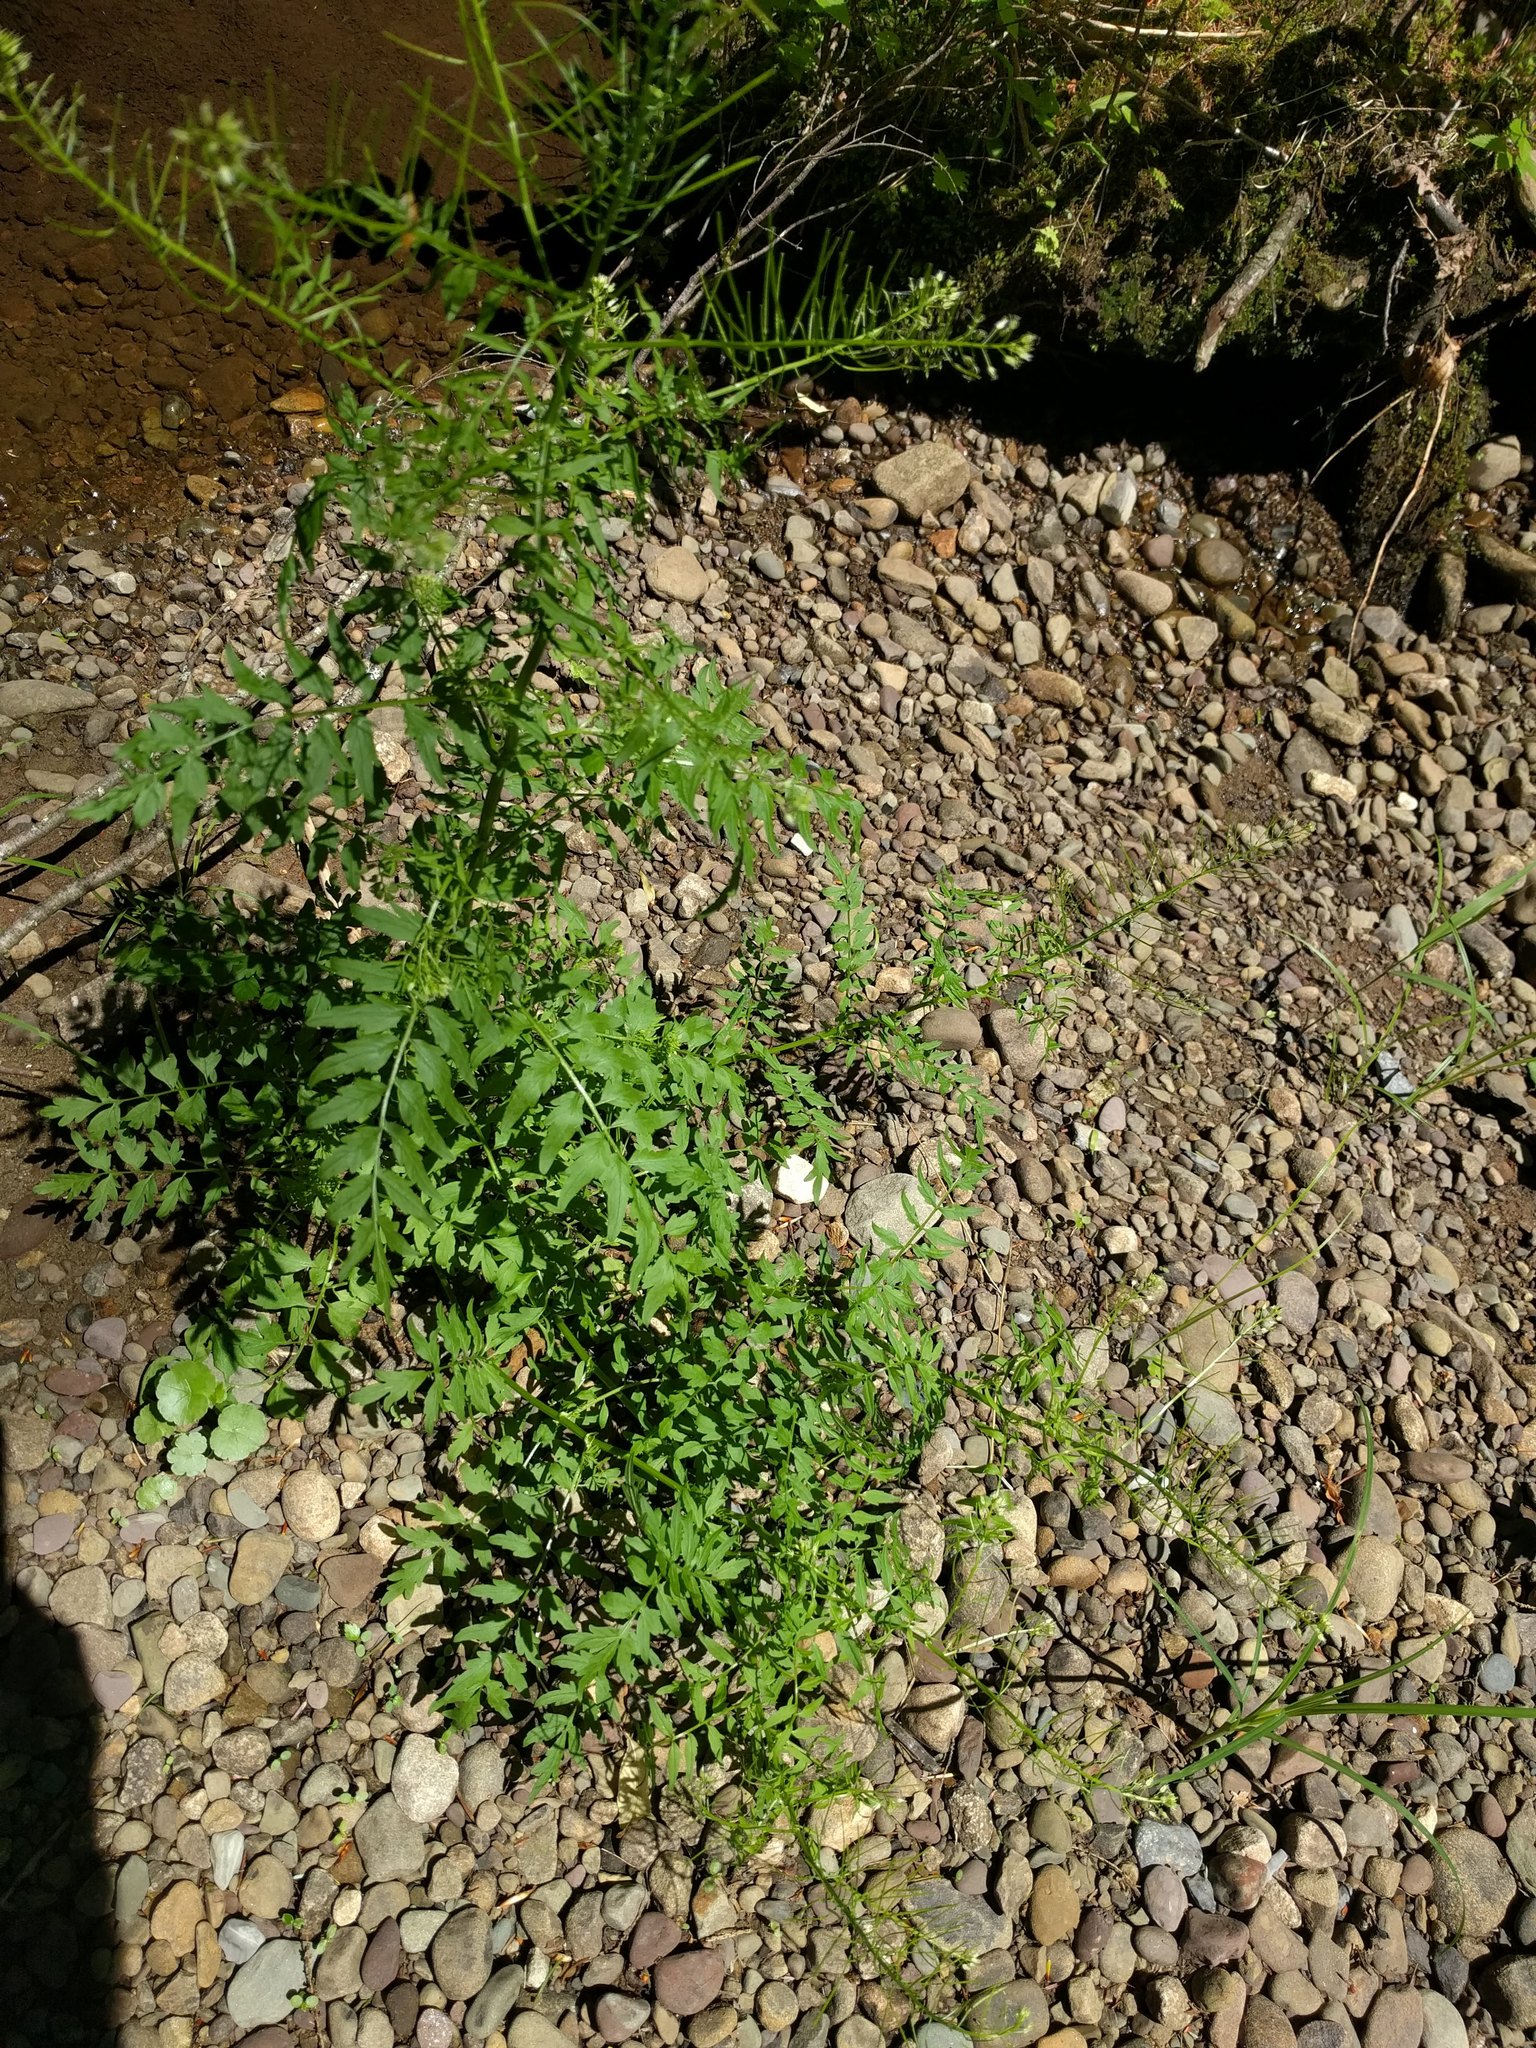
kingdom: Plantae
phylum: Tracheophyta
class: Magnoliopsida
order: Brassicales
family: Brassicaceae
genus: Cardamine
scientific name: Cardamine impatiens
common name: Narrow-leaved bitter-cress
